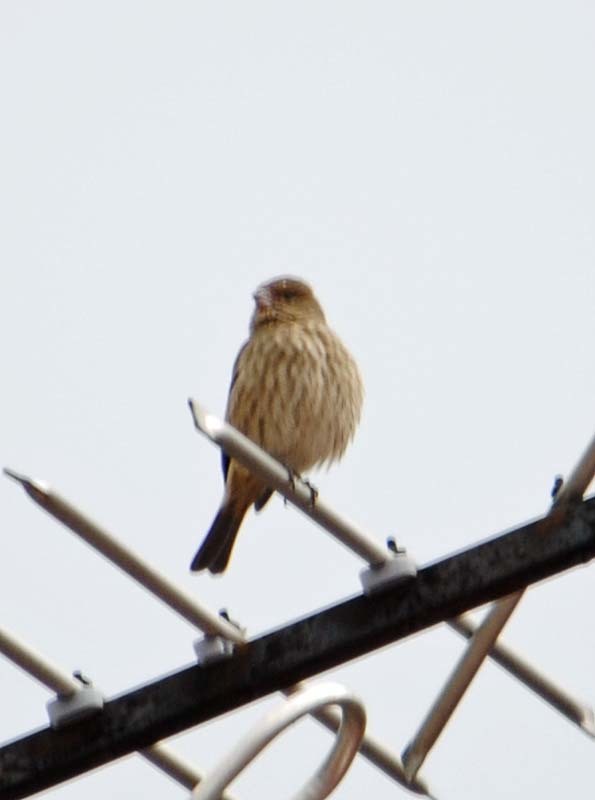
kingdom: Animalia
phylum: Chordata
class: Aves
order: Passeriformes
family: Fringillidae
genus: Haemorhous
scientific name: Haemorhous mexicanus
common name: House finch
